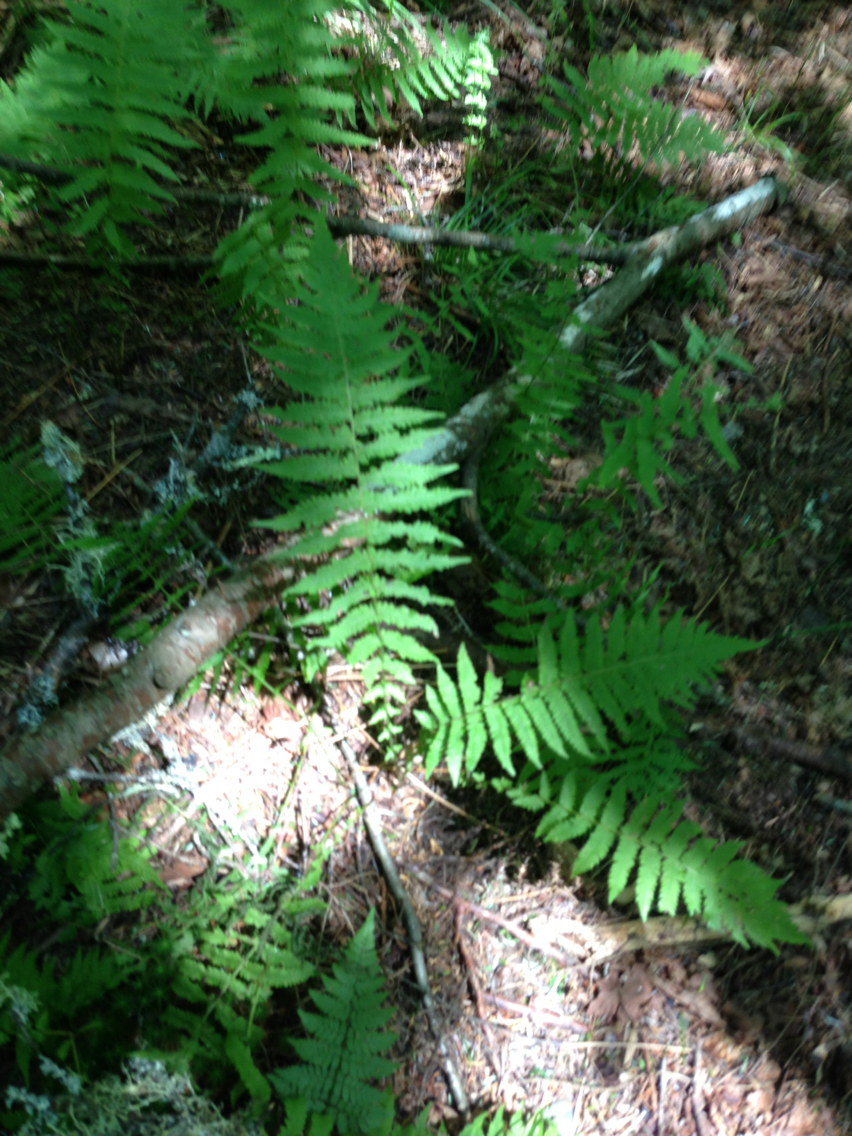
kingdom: Plantae
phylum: Tracheophyta
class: Polypodiopsida
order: Polypodiales
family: Thelypteridaceae
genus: Amauropelta
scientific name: Amauropelta noveboracensis
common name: New york fern
